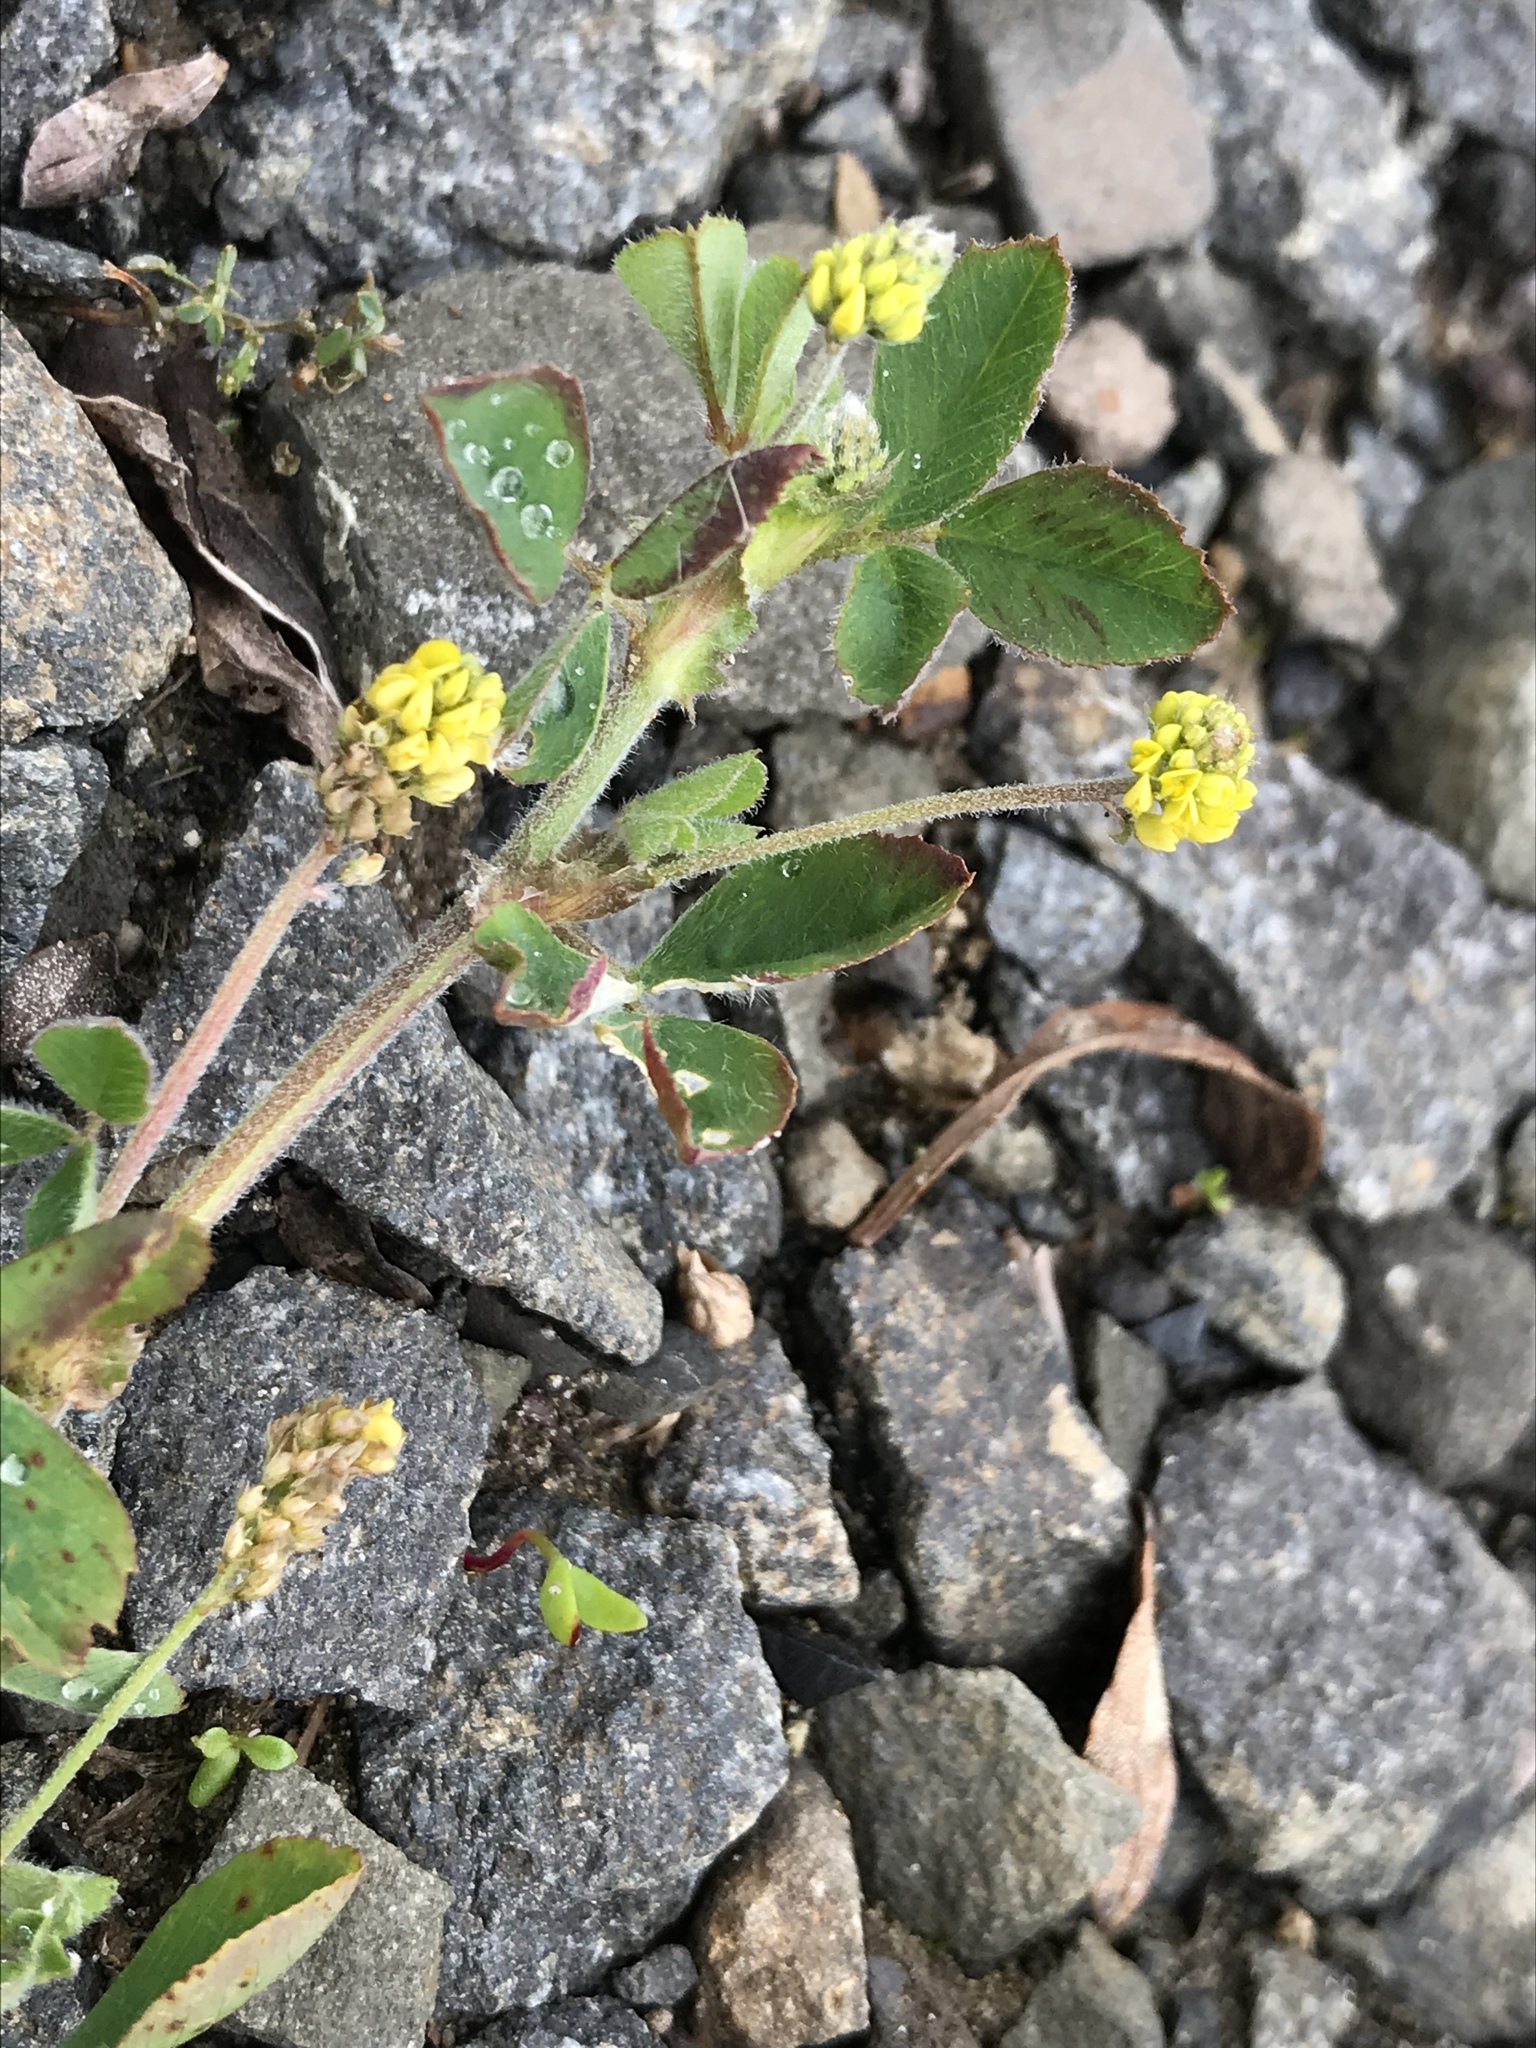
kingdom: Plantae
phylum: Tracheophyta
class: Magnoliopsida
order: Fabales
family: Fabaceae
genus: Medicago
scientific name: Medicago lupulina
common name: Black medick
